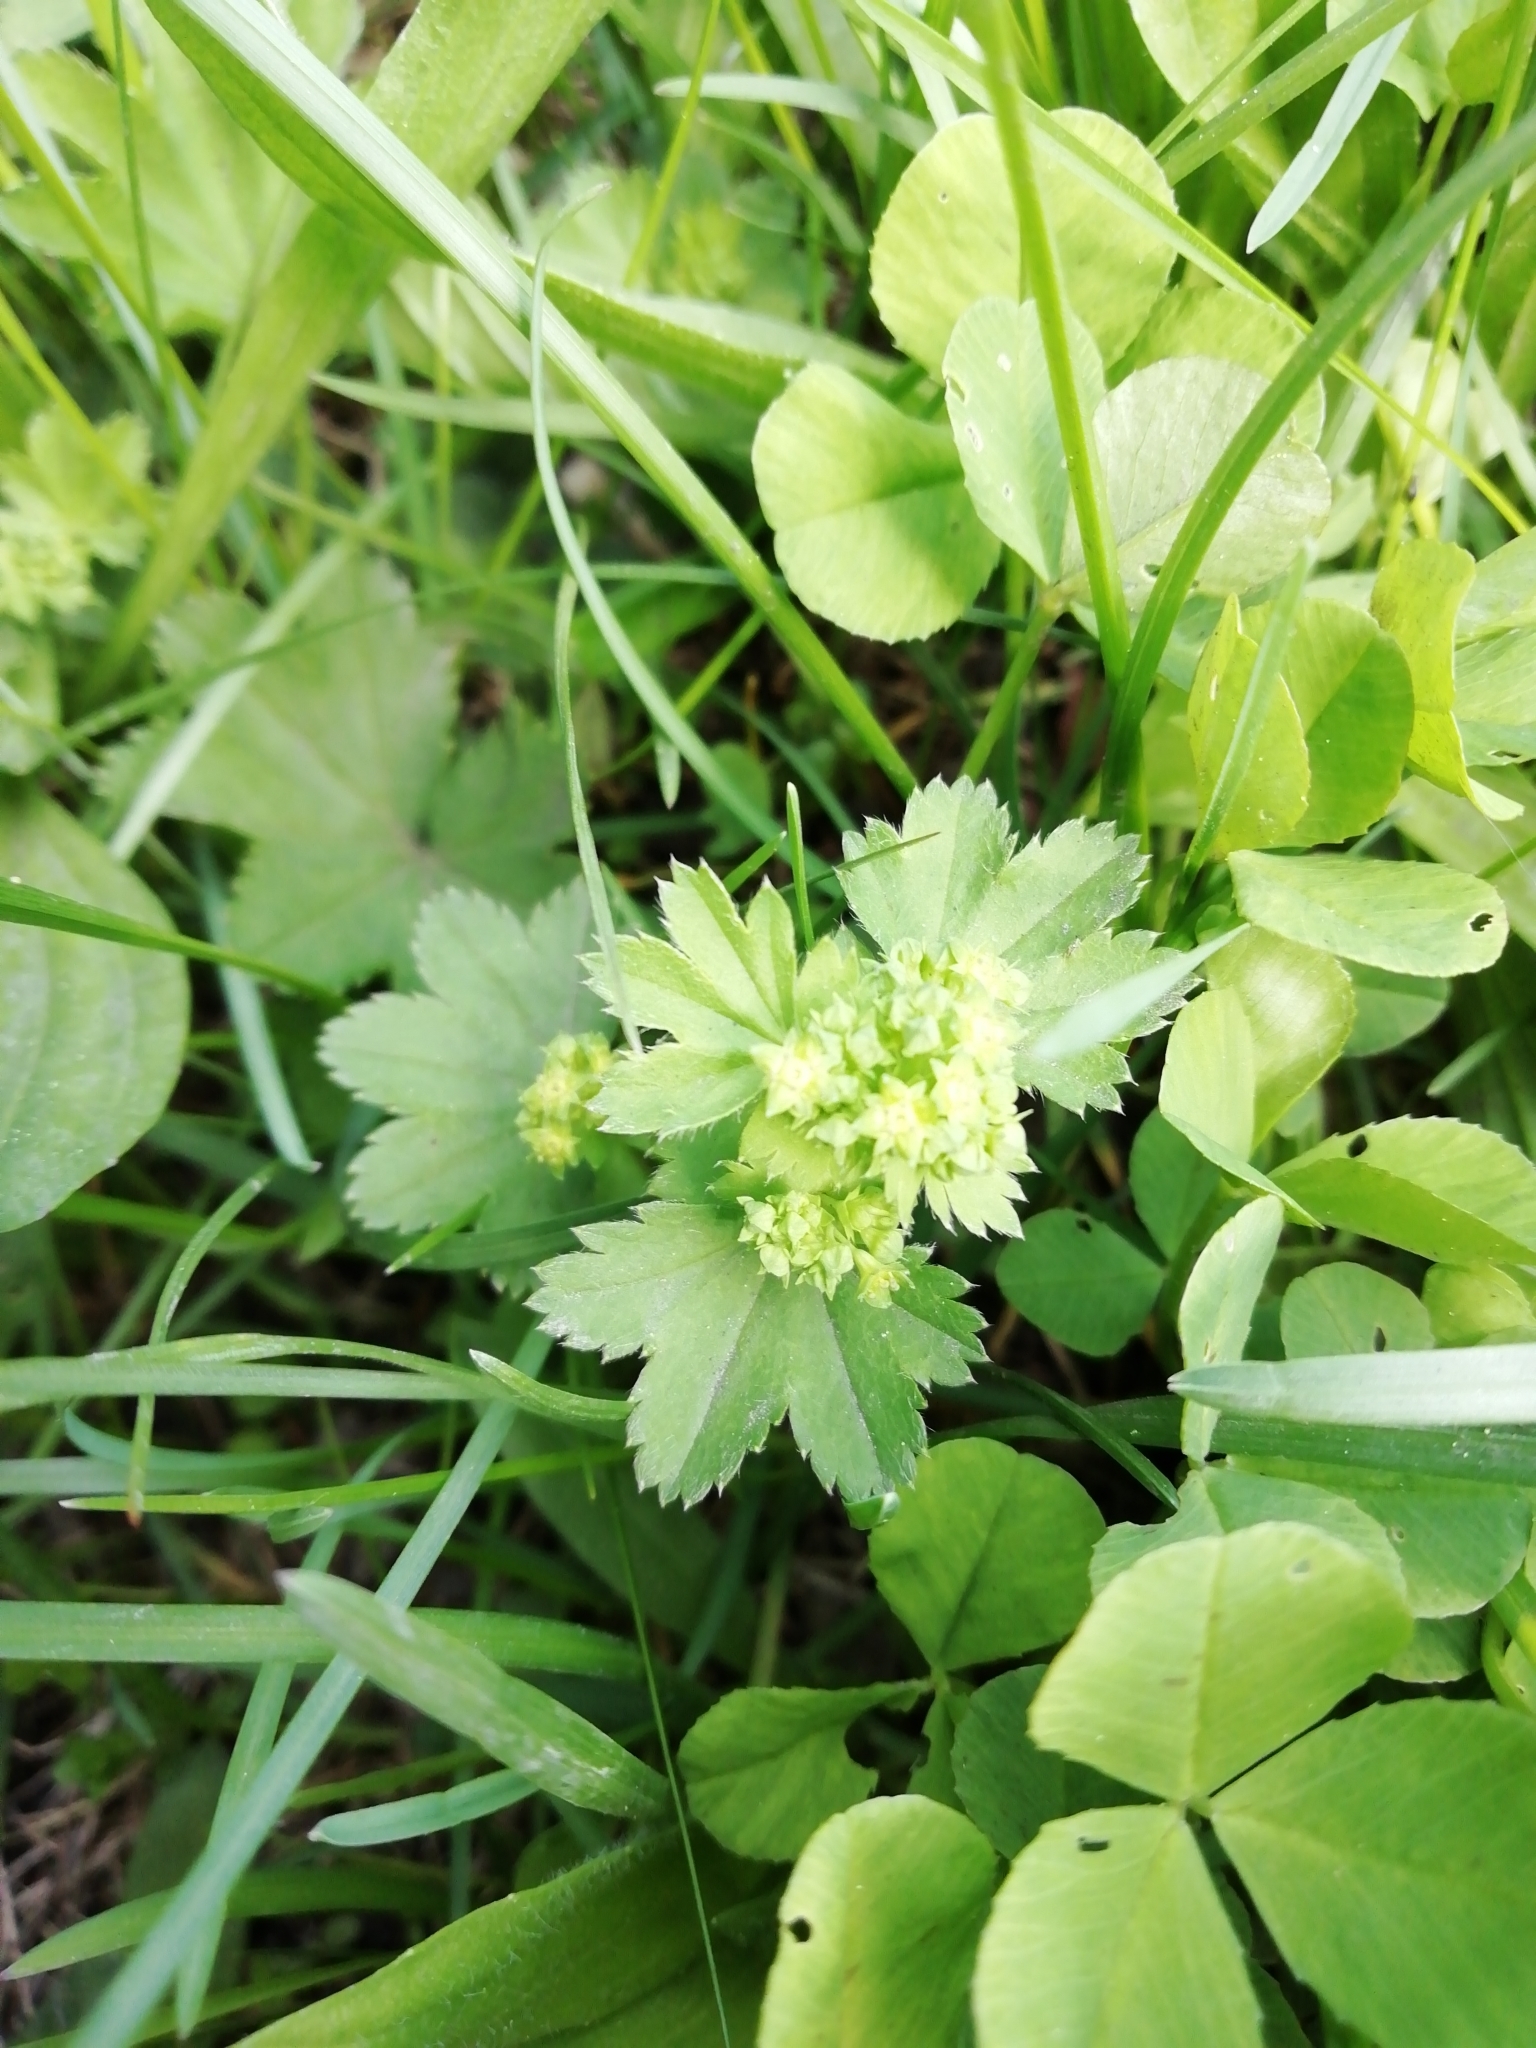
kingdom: Plantae
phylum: Tracheophyta
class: Magnoliopsida
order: Rosales
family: Rosaceae
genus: Alchemilla
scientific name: Alchemilla
